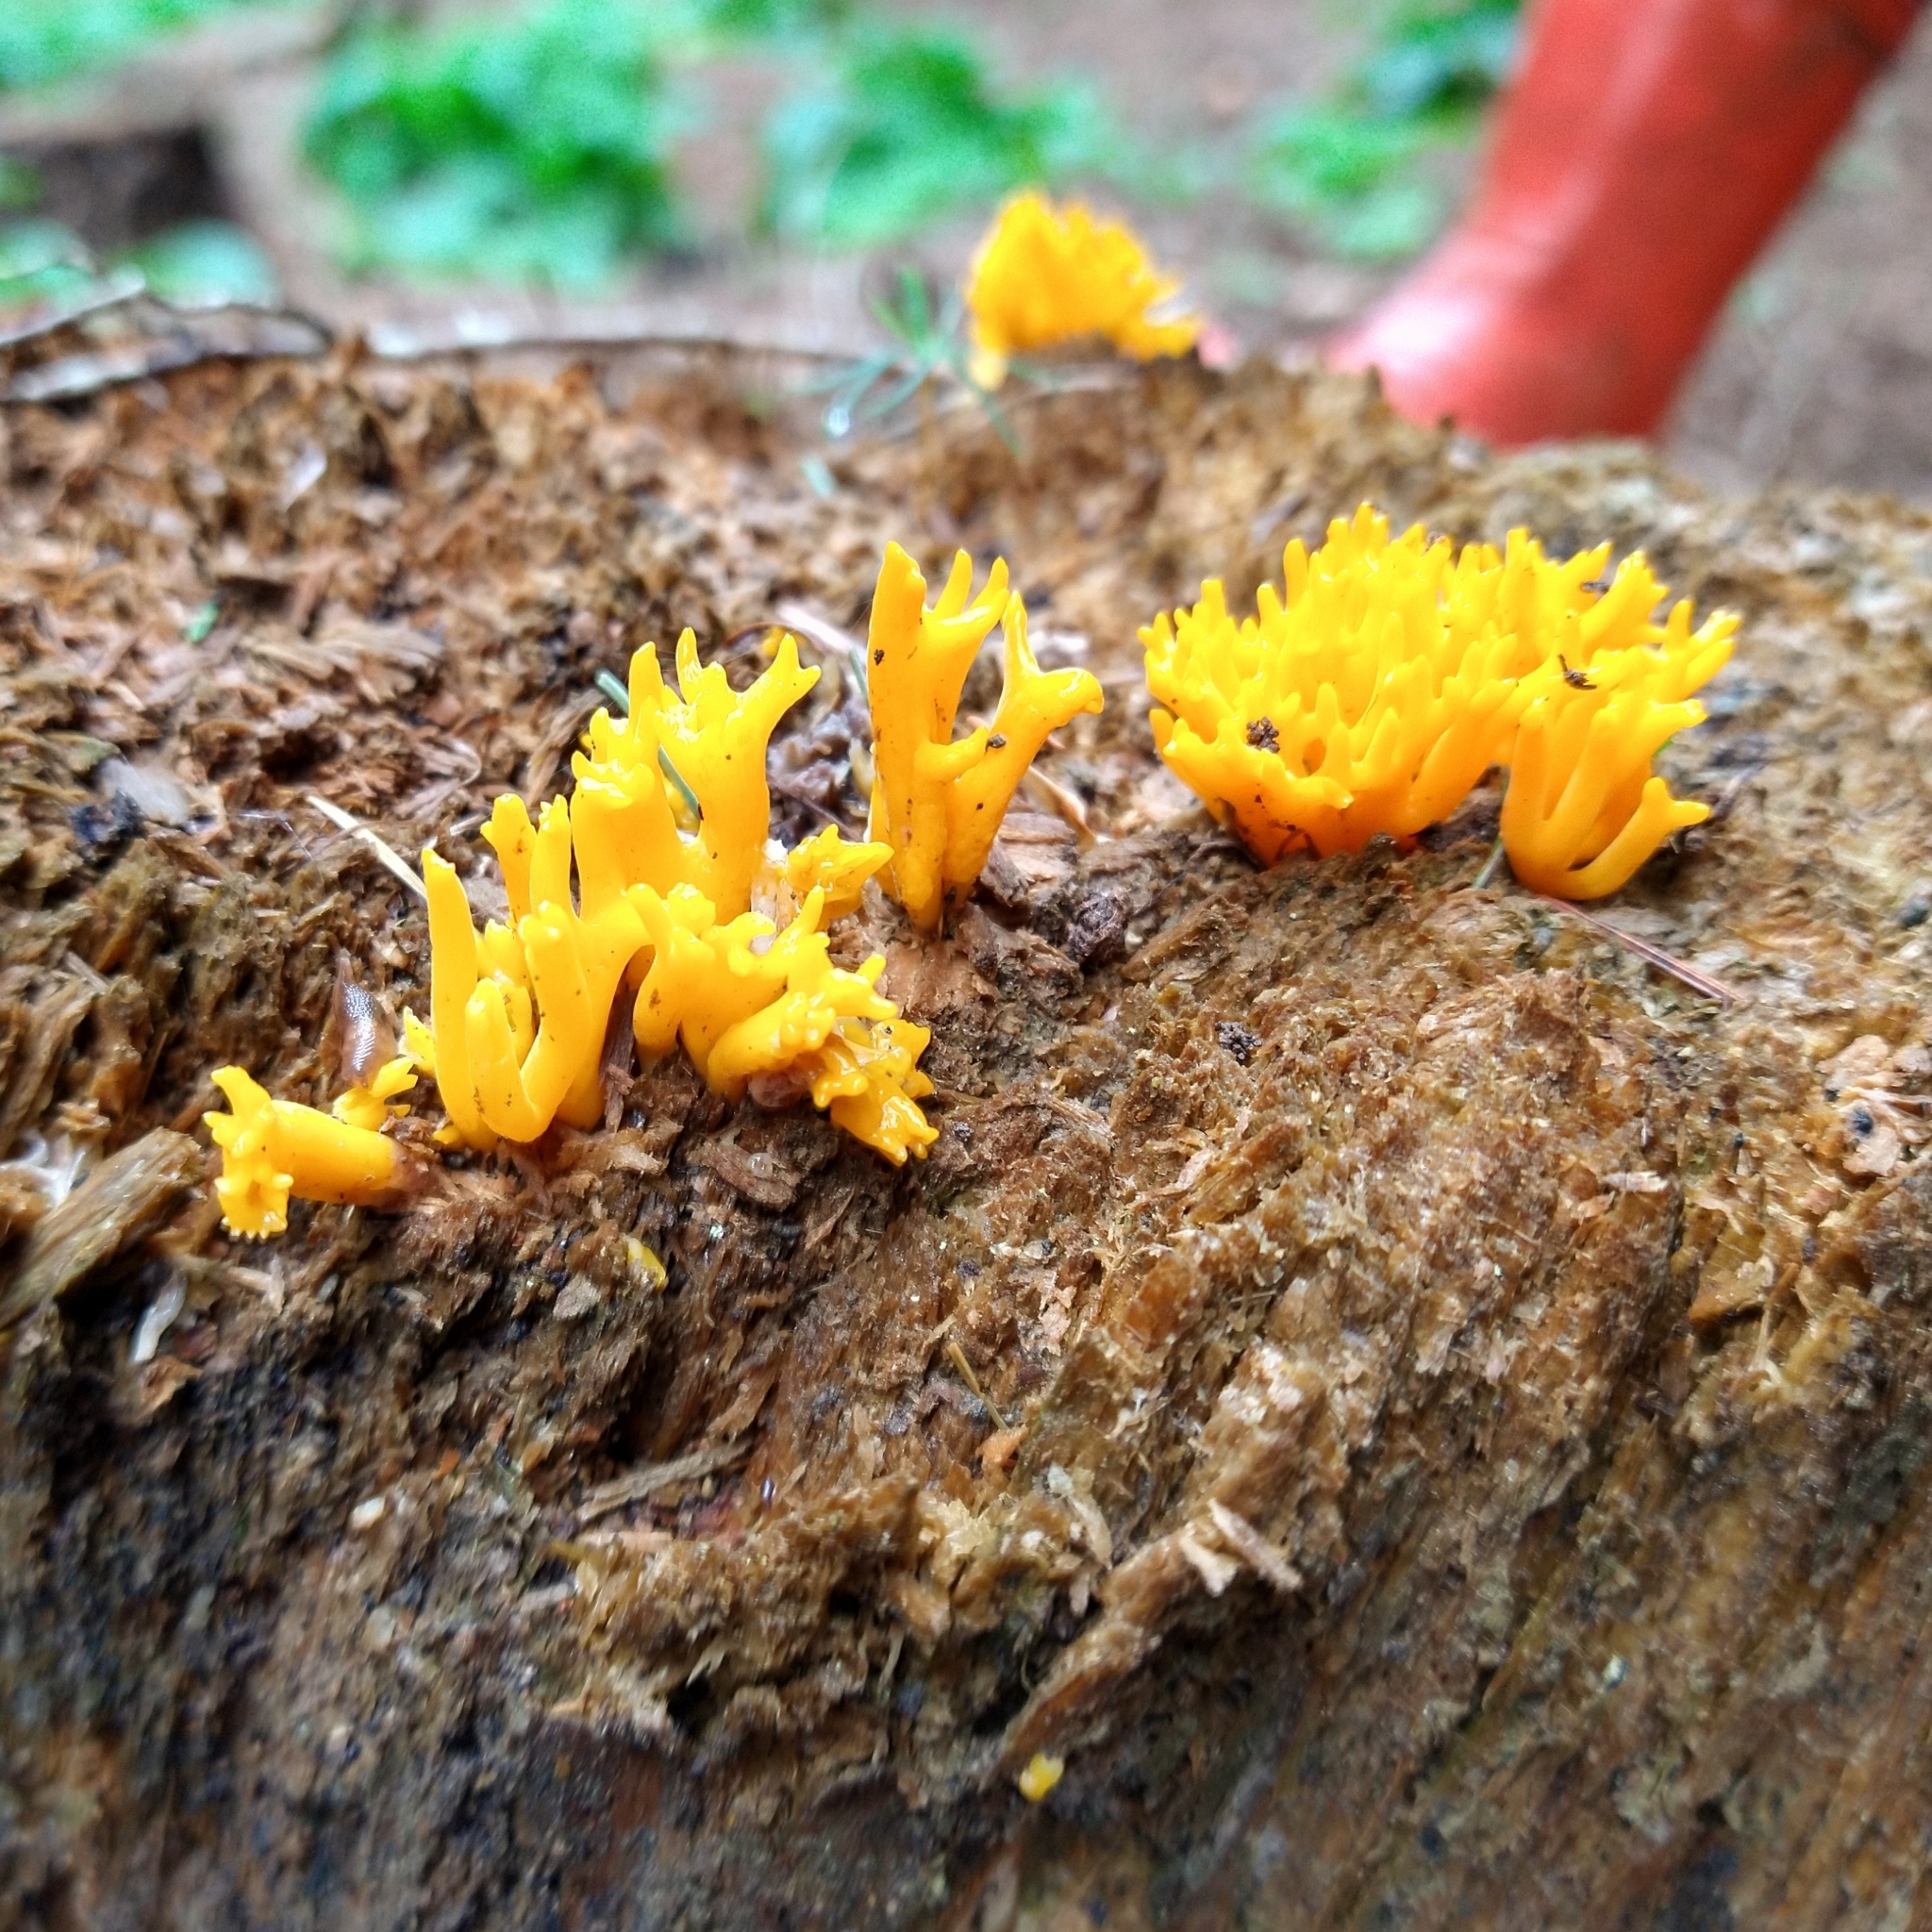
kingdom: Fungi
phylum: Basidiomycota
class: Dacrymycetes
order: Dacrymycetales
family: Dacrymycetaceae
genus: Calocera
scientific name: Calocera viscosa
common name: Yellow stagshorn
